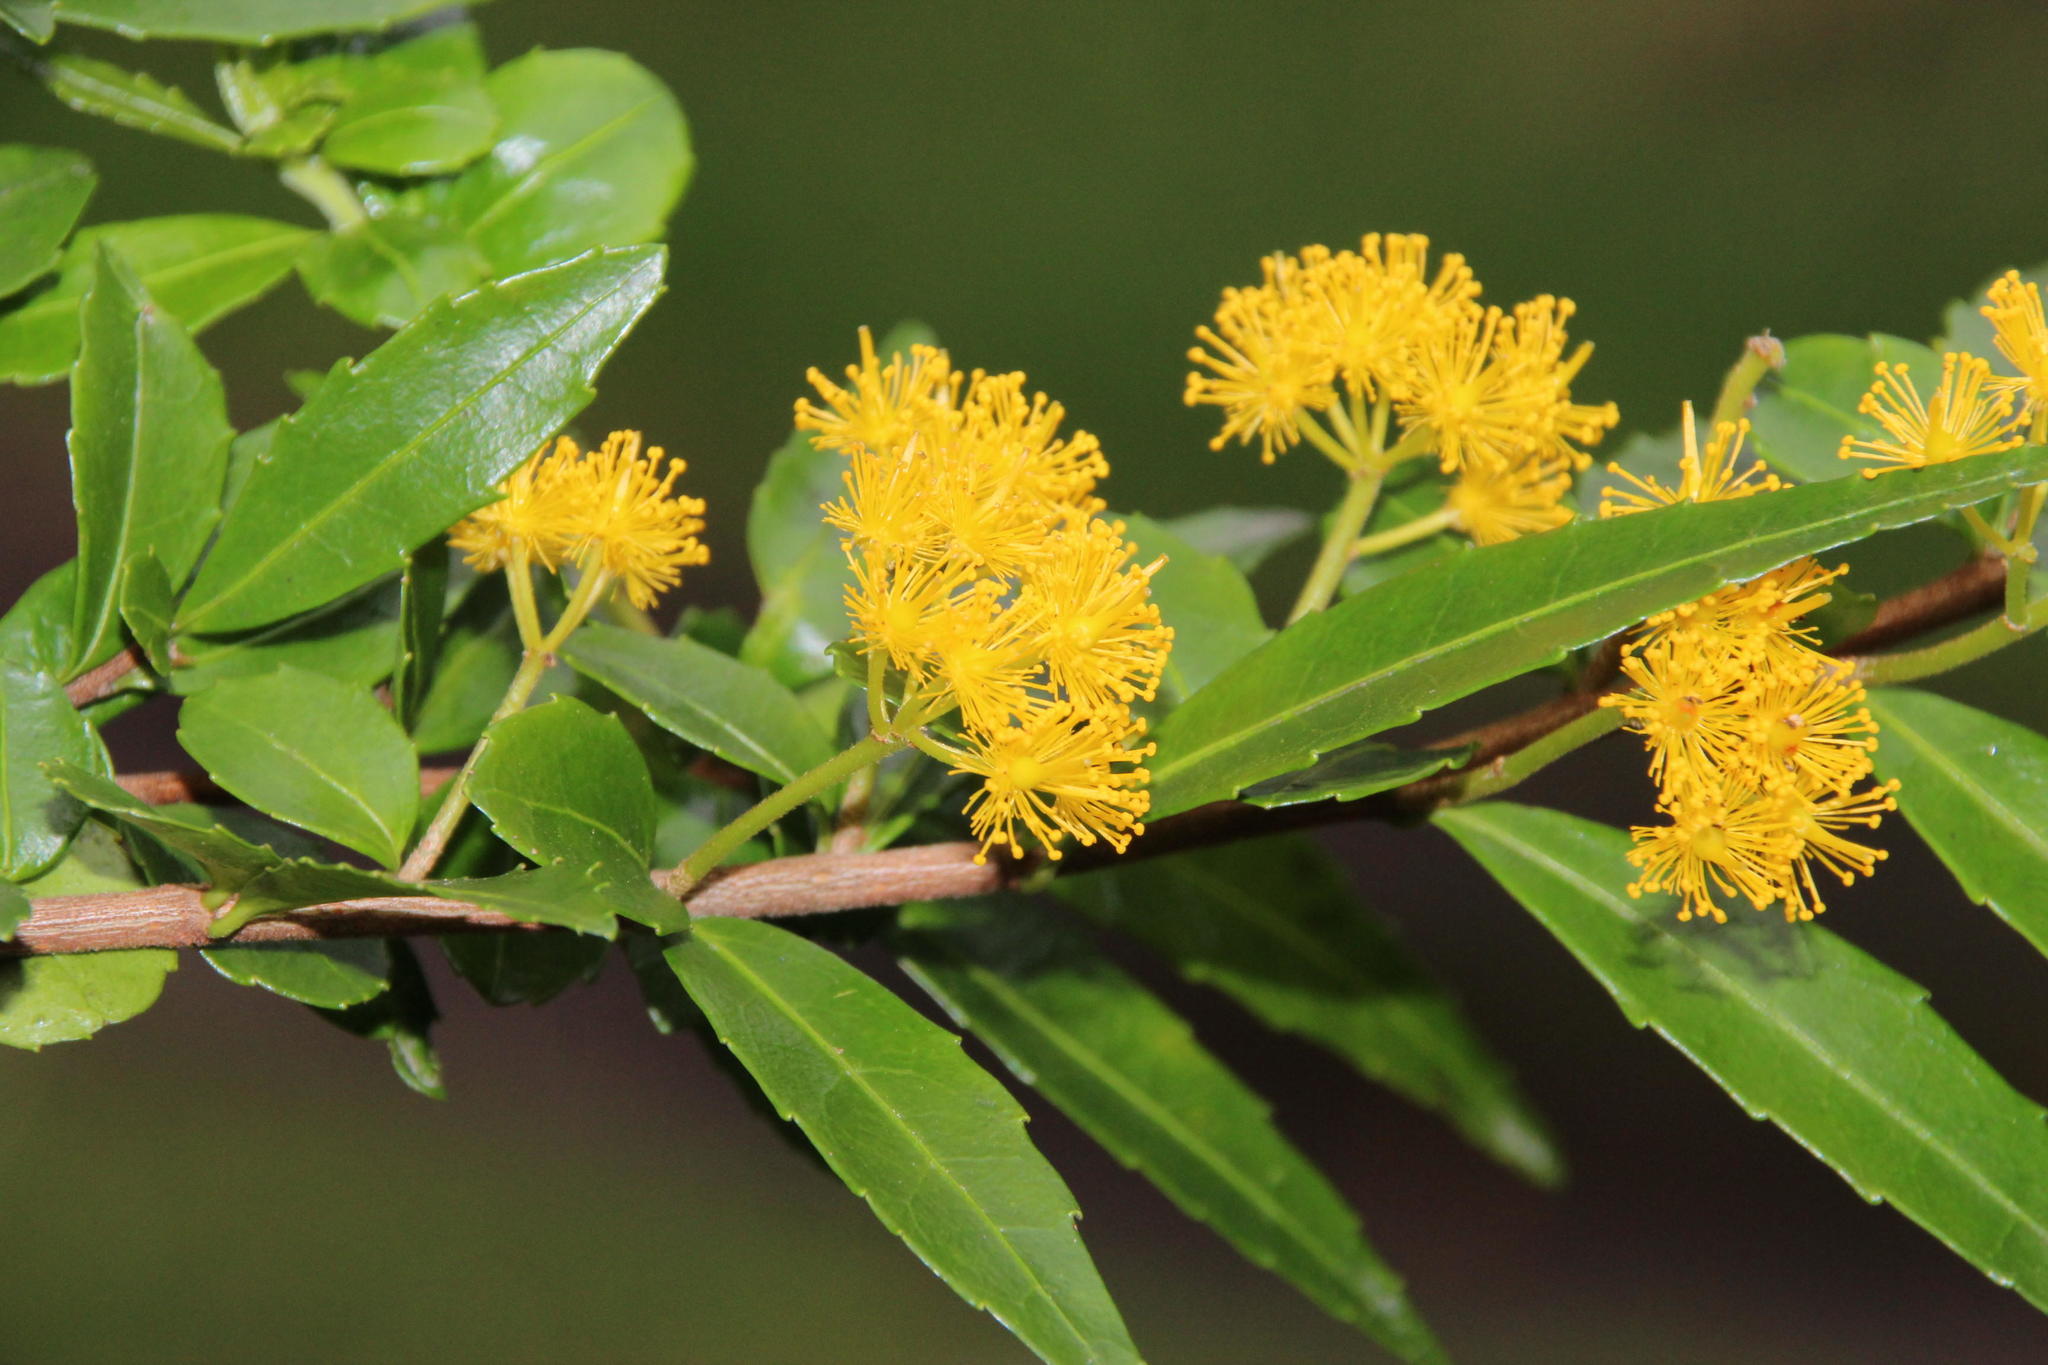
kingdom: Plantae
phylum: Tracheophyta
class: Magnoliopsida
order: Malpighiales
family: Salicaceae
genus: Azara
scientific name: Azara lanceolata
